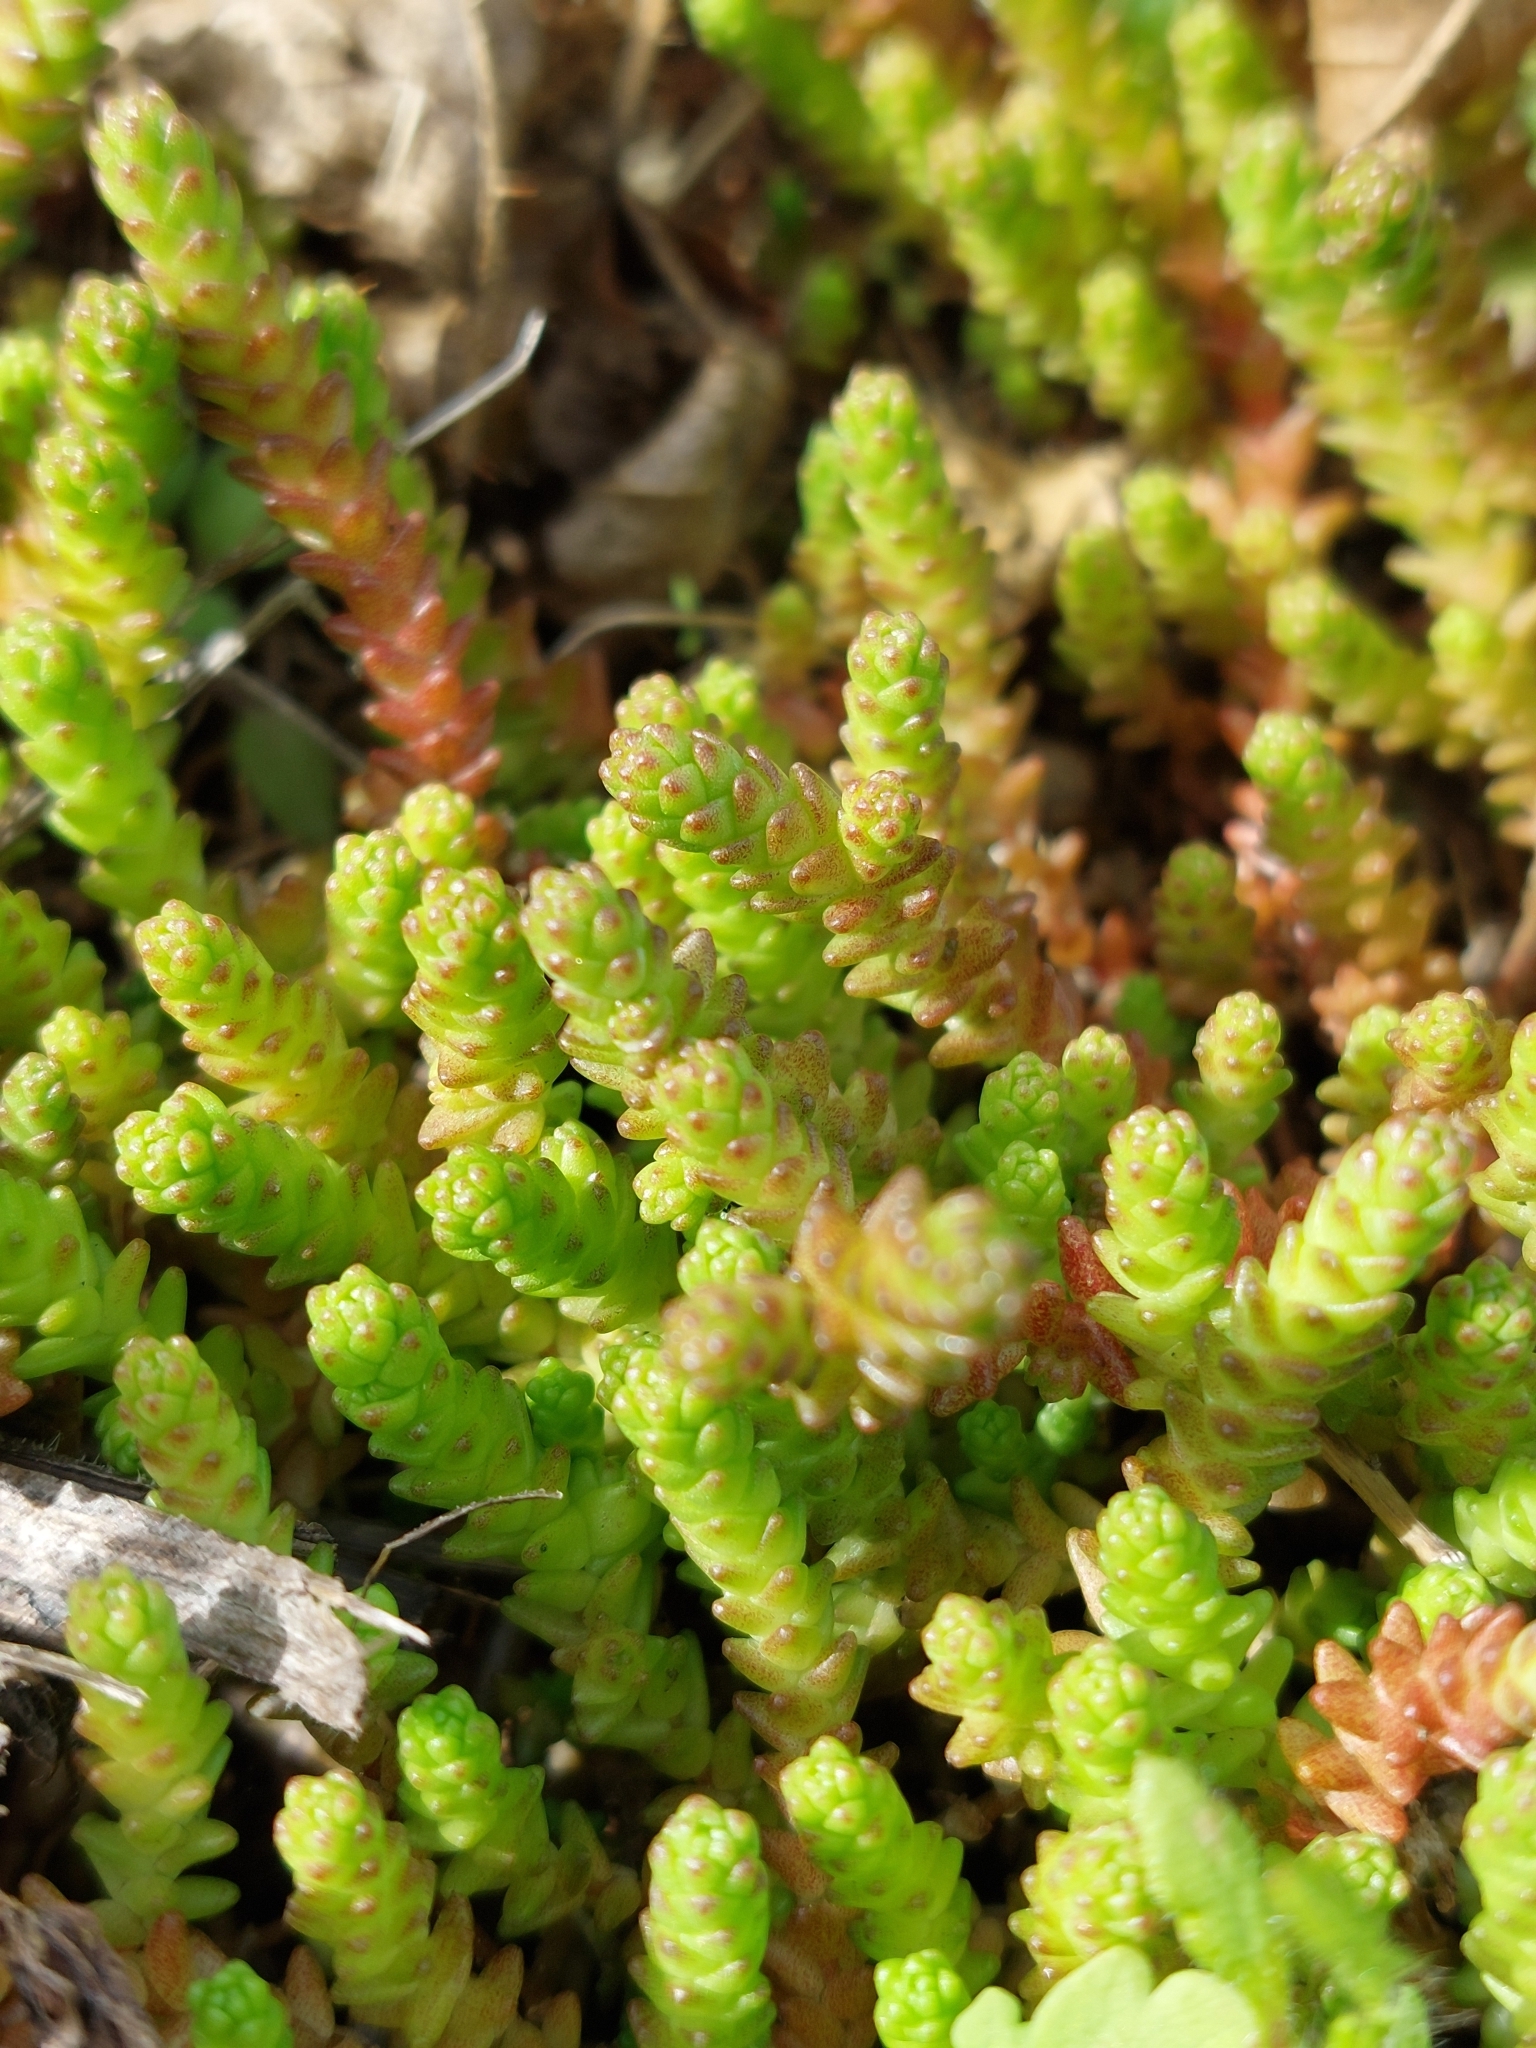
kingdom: Plantae
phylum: Tracheophyta
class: Magnoliopsida
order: Saxifragales
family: Crassulaceae
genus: Sedum
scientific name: Sedum acre
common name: Biting stonecrop
